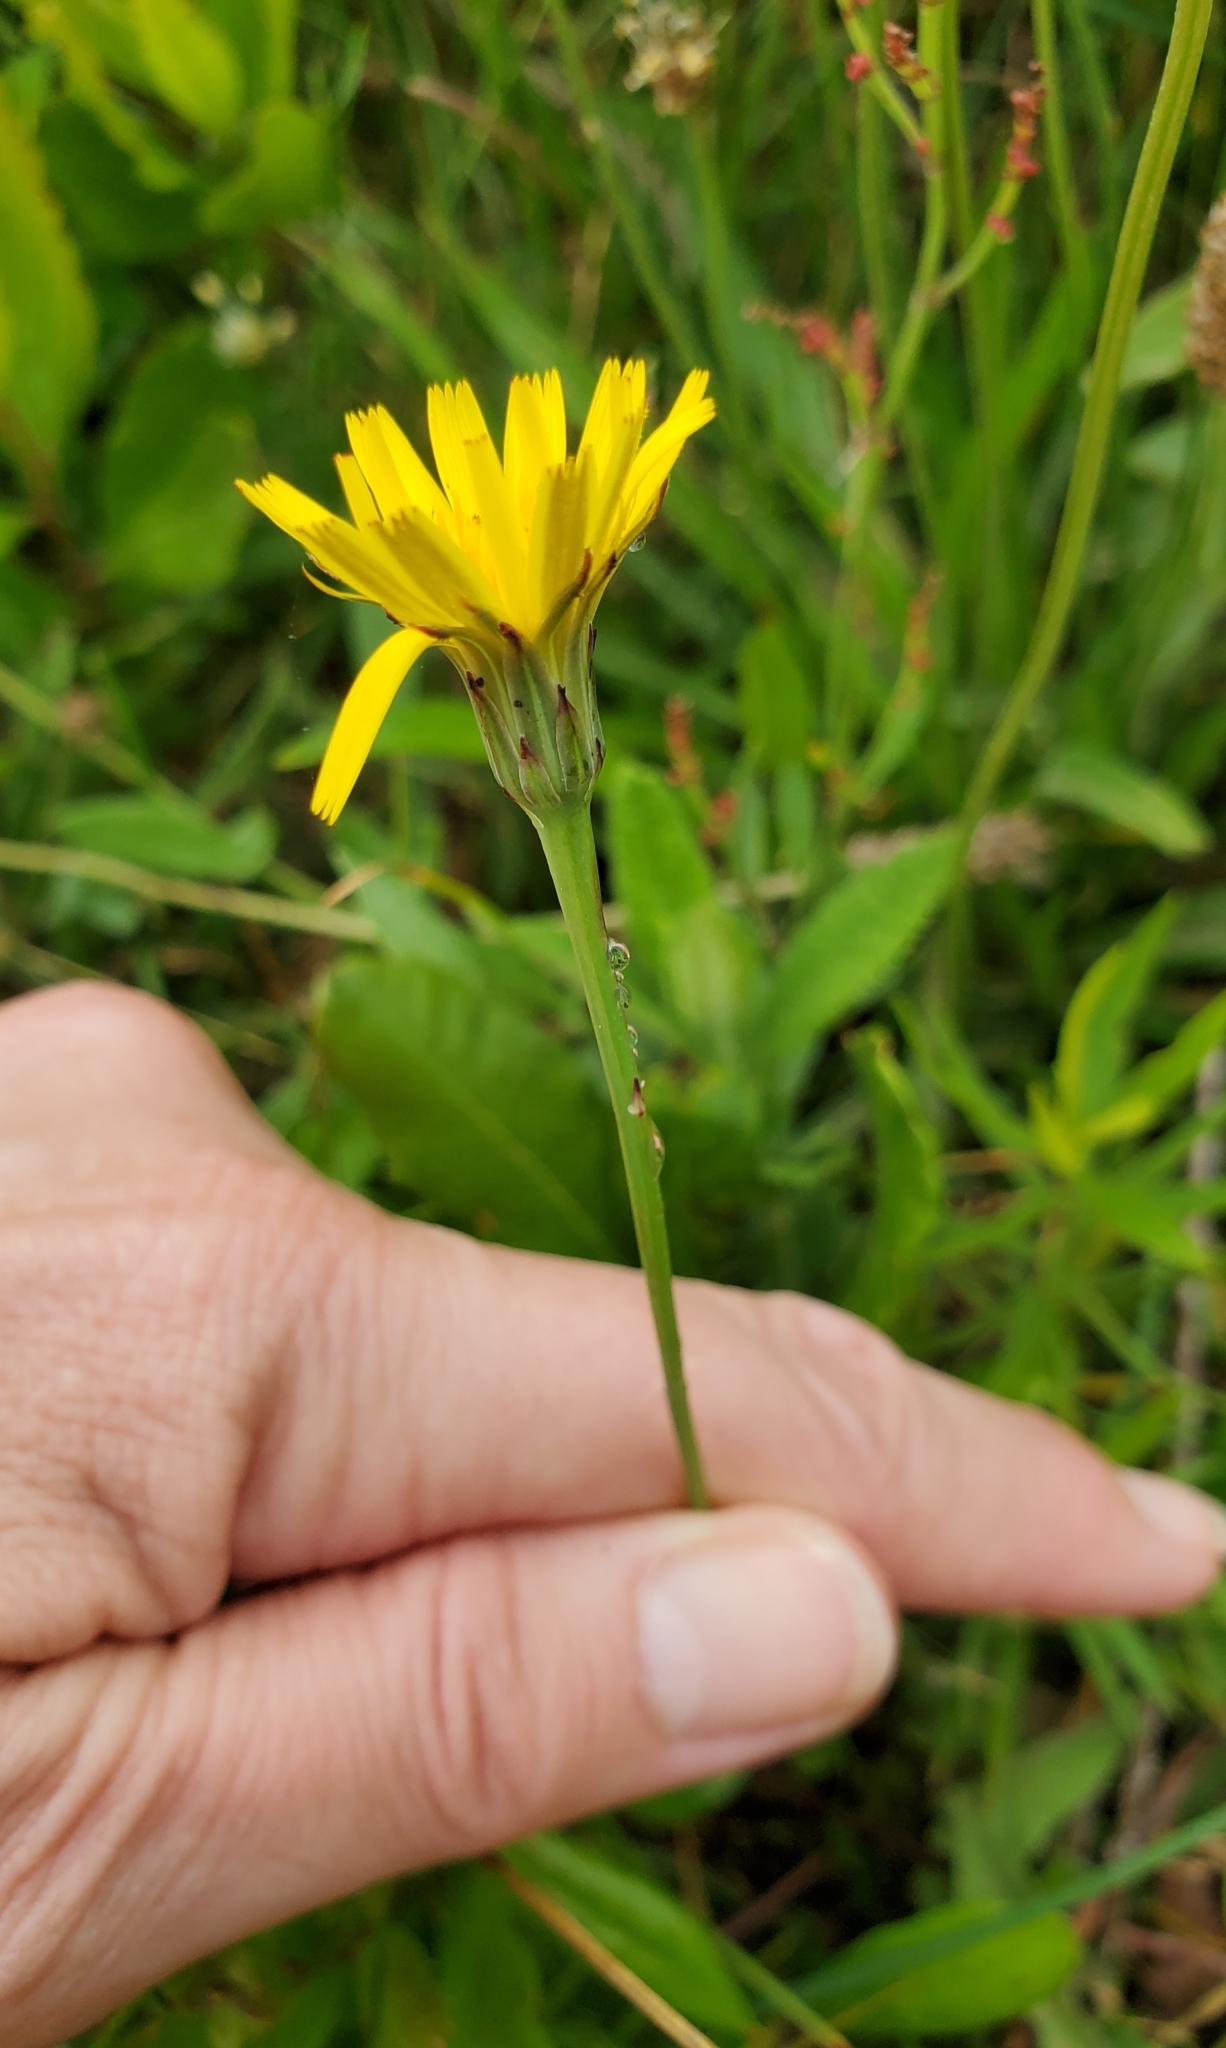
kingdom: Plantae
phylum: Tracheophyta
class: Magnoliopsida
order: Asterales
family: Asteraceae
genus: Hypochaeris
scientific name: Hypochaeris radicata
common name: Flatweed
